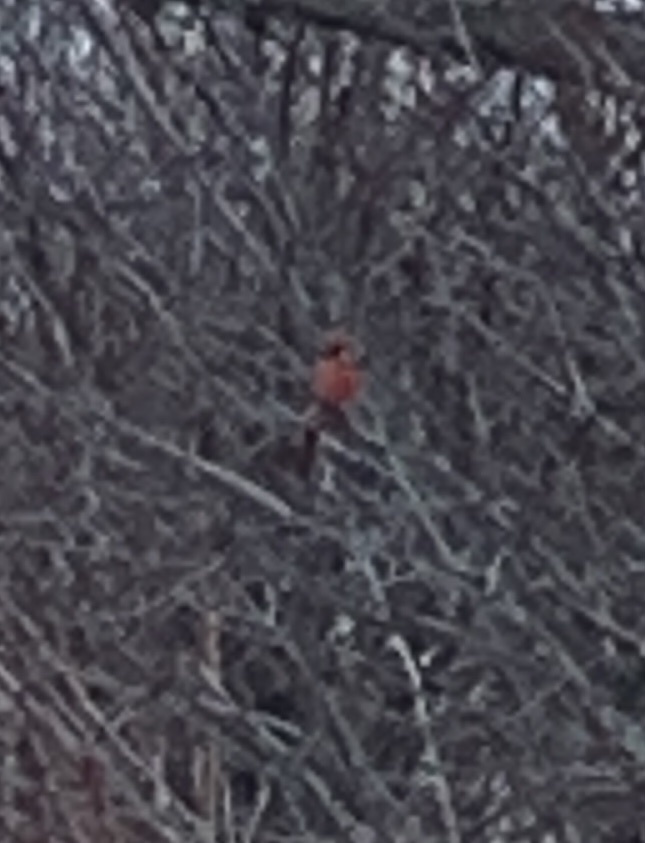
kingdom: Animalia
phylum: Chordata
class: Aves
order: Passeriformes
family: Cardinalidae
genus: Cardinalis
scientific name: Cardinalis cardinalis
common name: Northern cardinal
